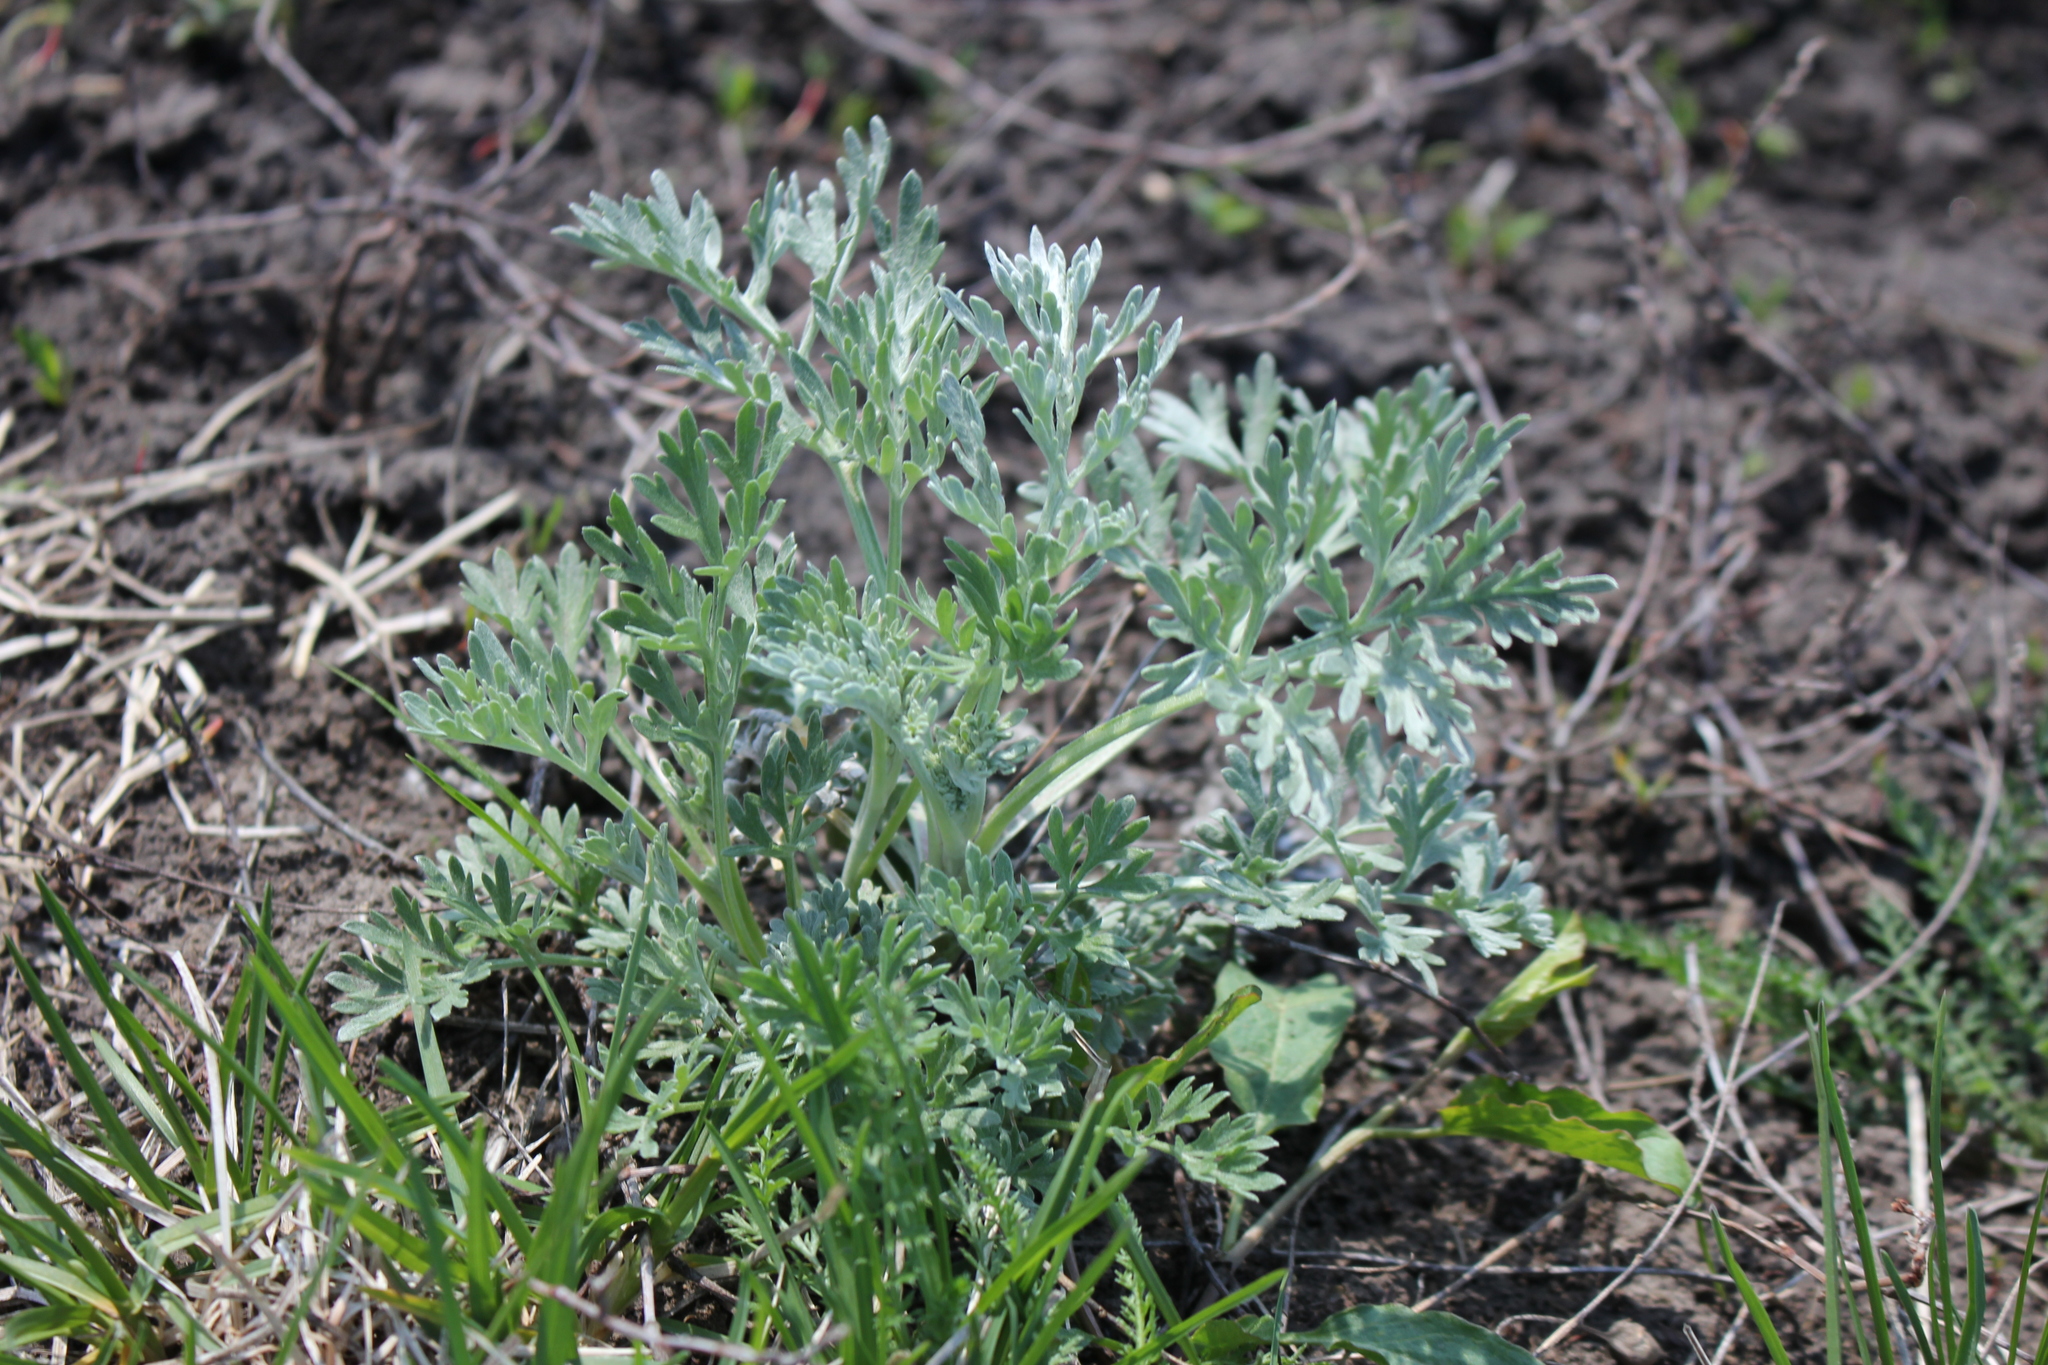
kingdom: Plantae
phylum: Tracheophyta
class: Magnoliopsida
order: Asterales
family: Asteraceae
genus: Artemisia
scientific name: Artemisia absinthium
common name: Wormwood
